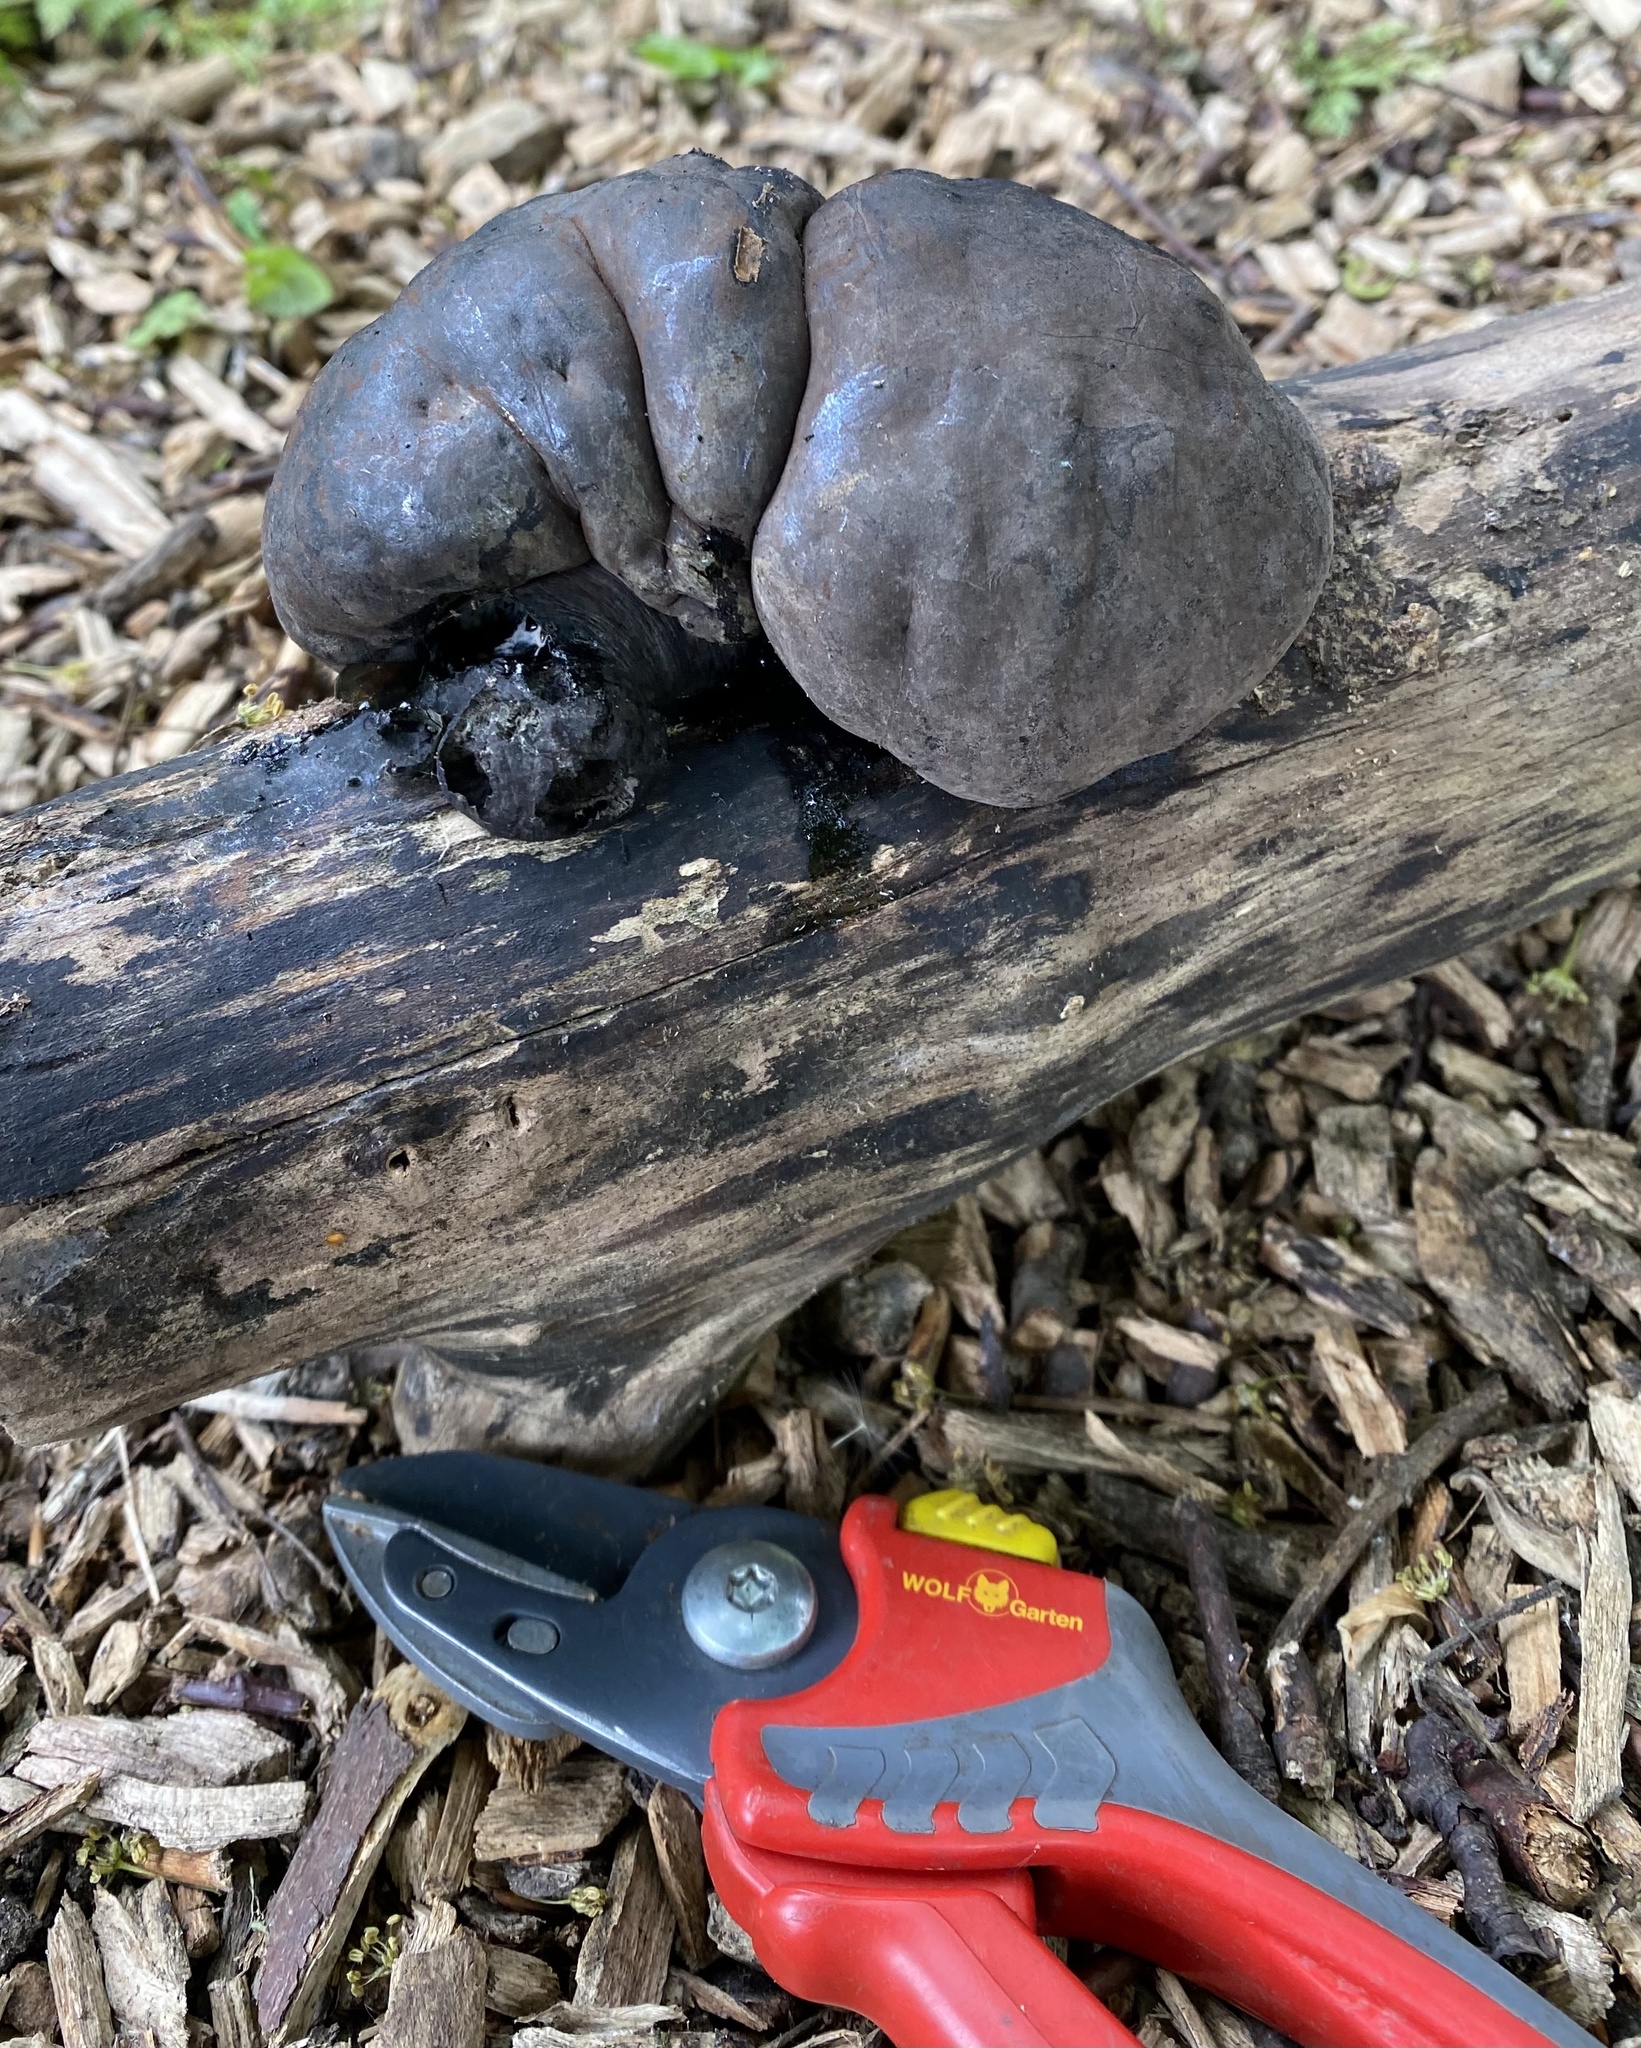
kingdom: Fungi
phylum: Ascomycota
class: Sordariomycetes
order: Xylariales
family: Hypoxylaceae
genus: Daldinia
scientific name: Daldinia concentrica
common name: Cramp balls
